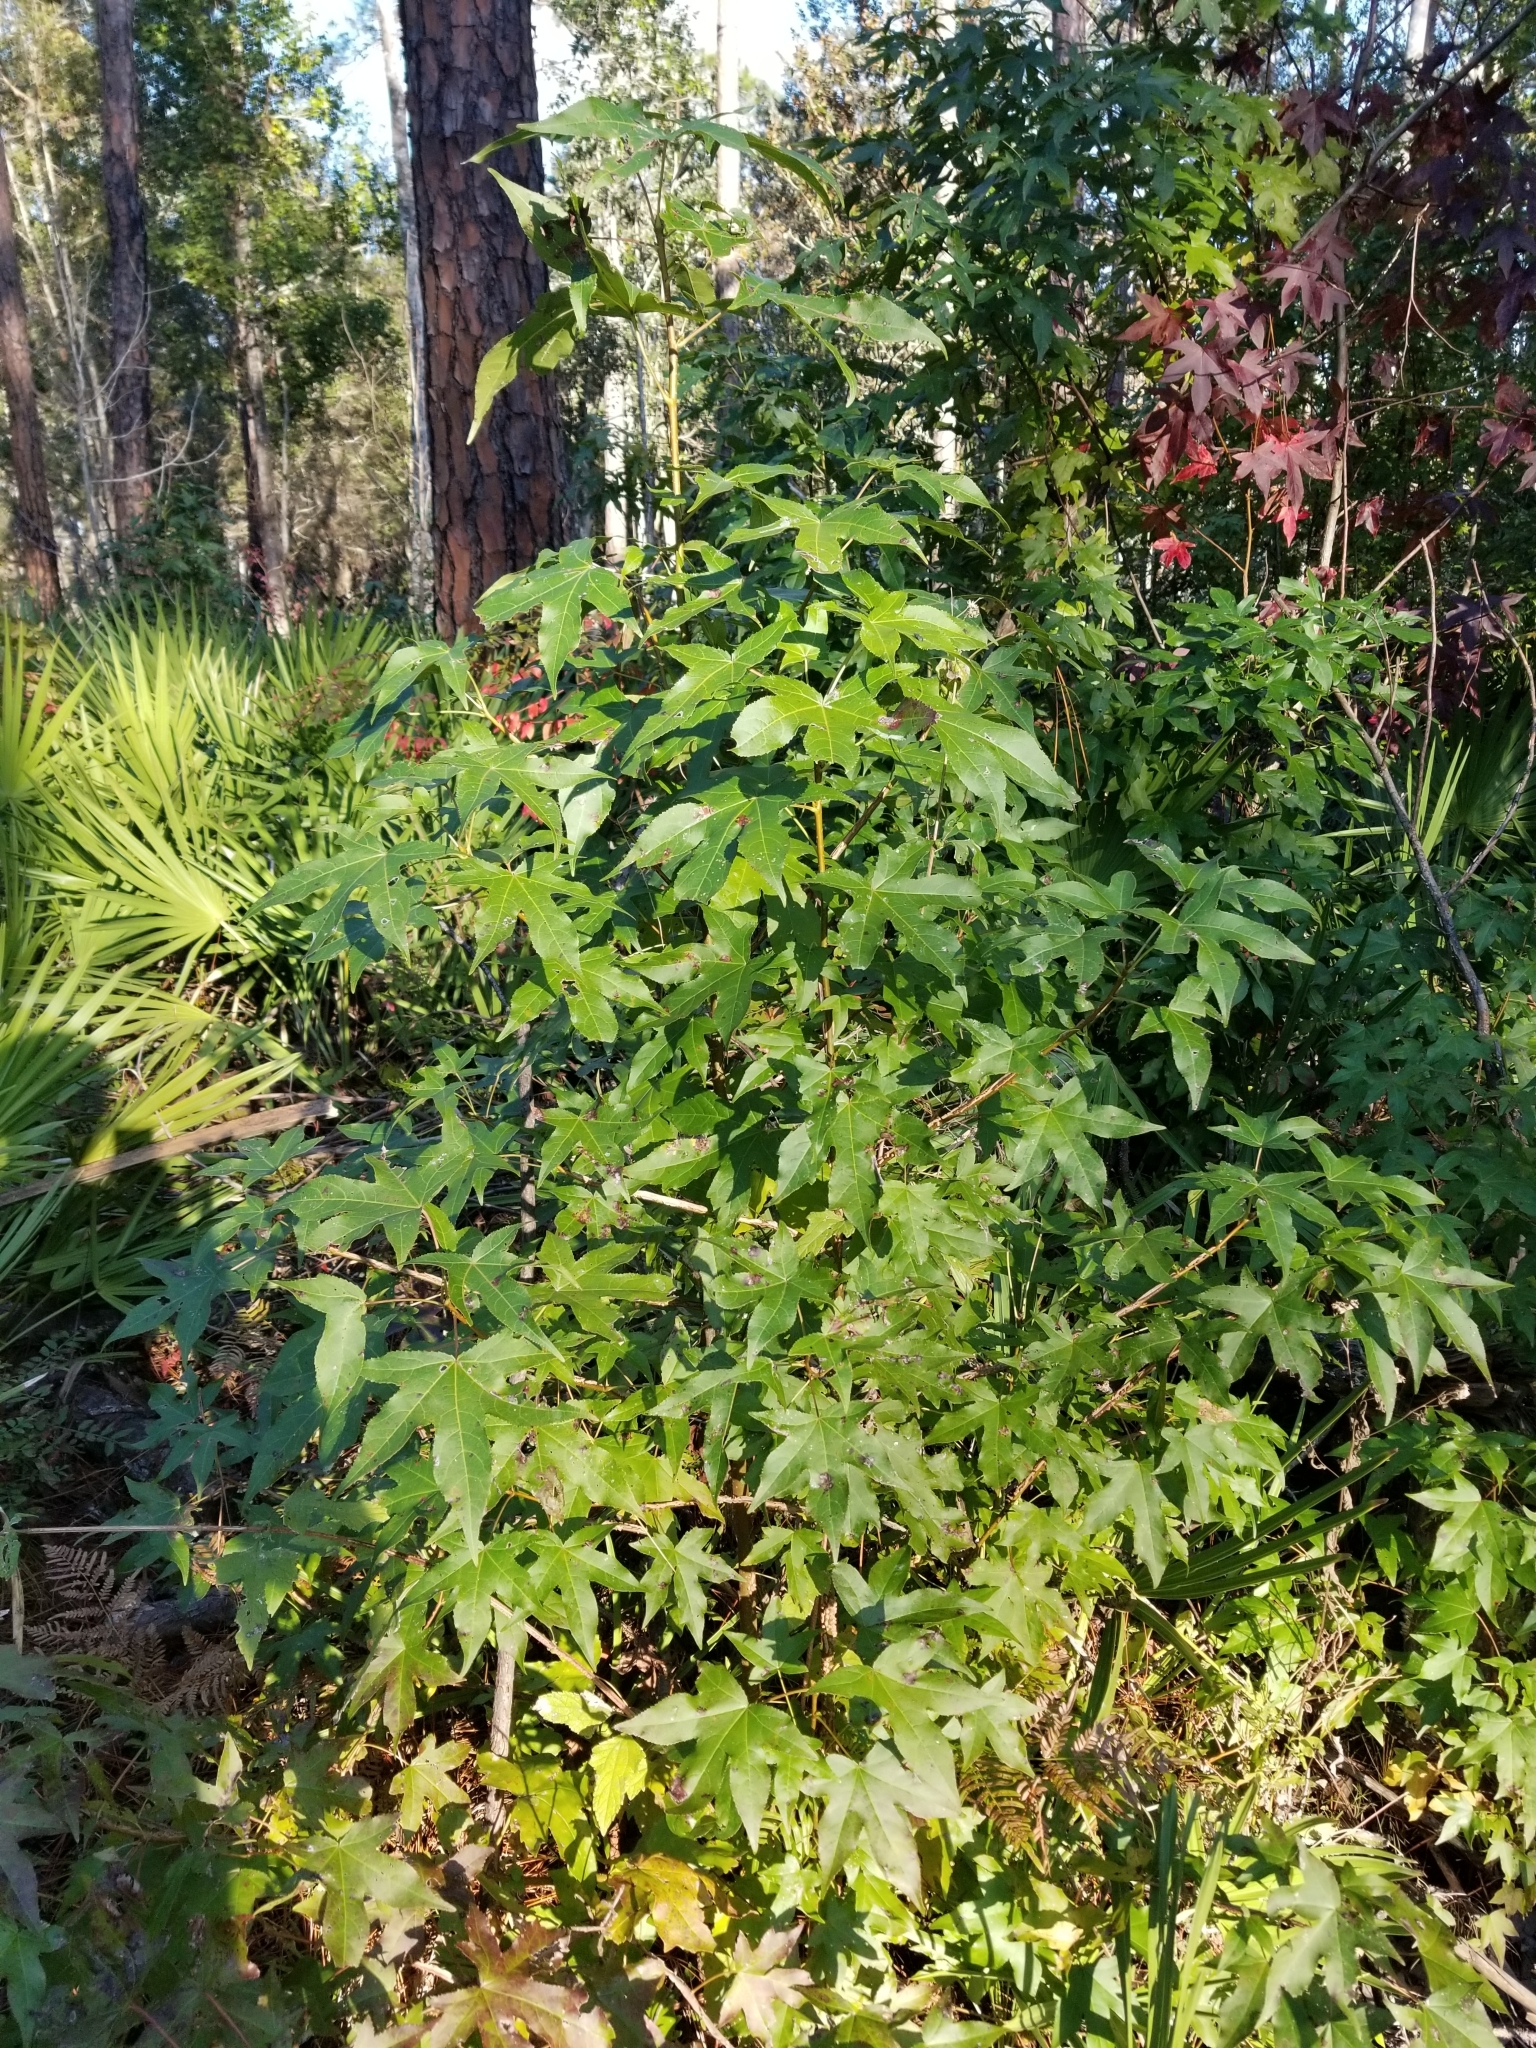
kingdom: Plantae
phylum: Tracheophyta
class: Magnoliopsida
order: Saxifragales
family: Altingiaceae
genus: Liquidambar
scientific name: Liquidambar styraciflua
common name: Sweet gum
